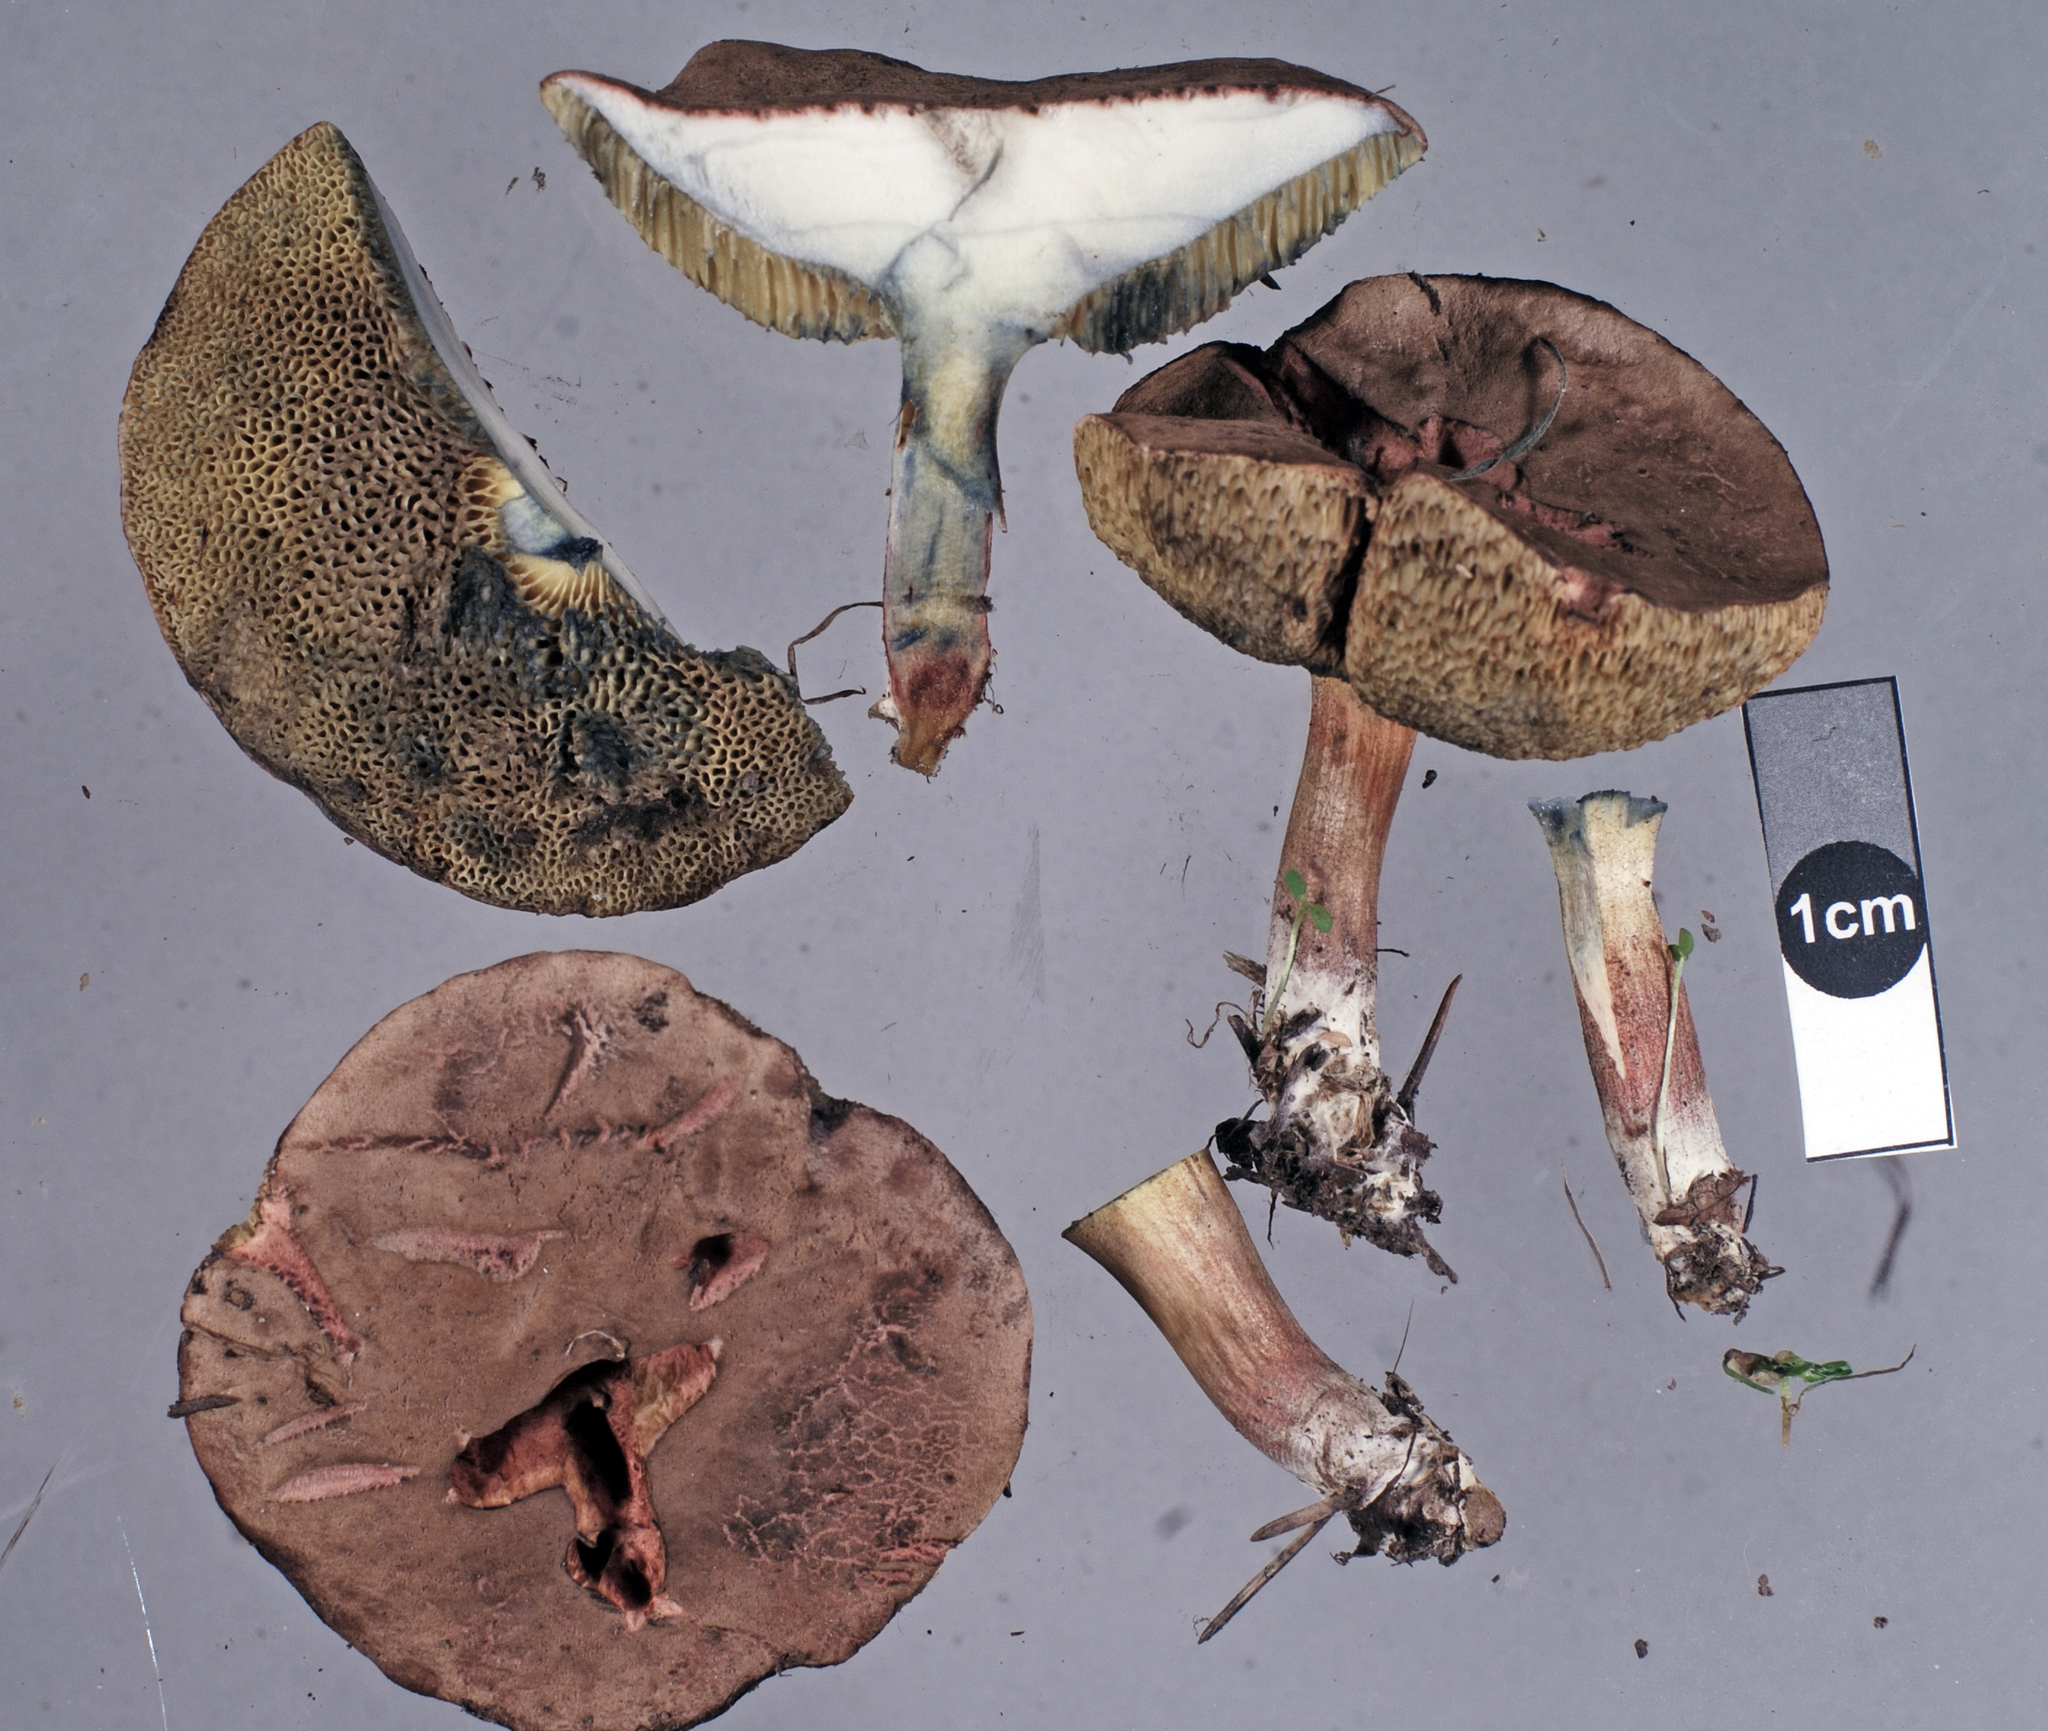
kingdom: Fungi
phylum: Basidiomycota
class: Agaricomycetes
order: Boletales
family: Boletaceae
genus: Xerocomellus
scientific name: Xerocomellus cisalpinus
